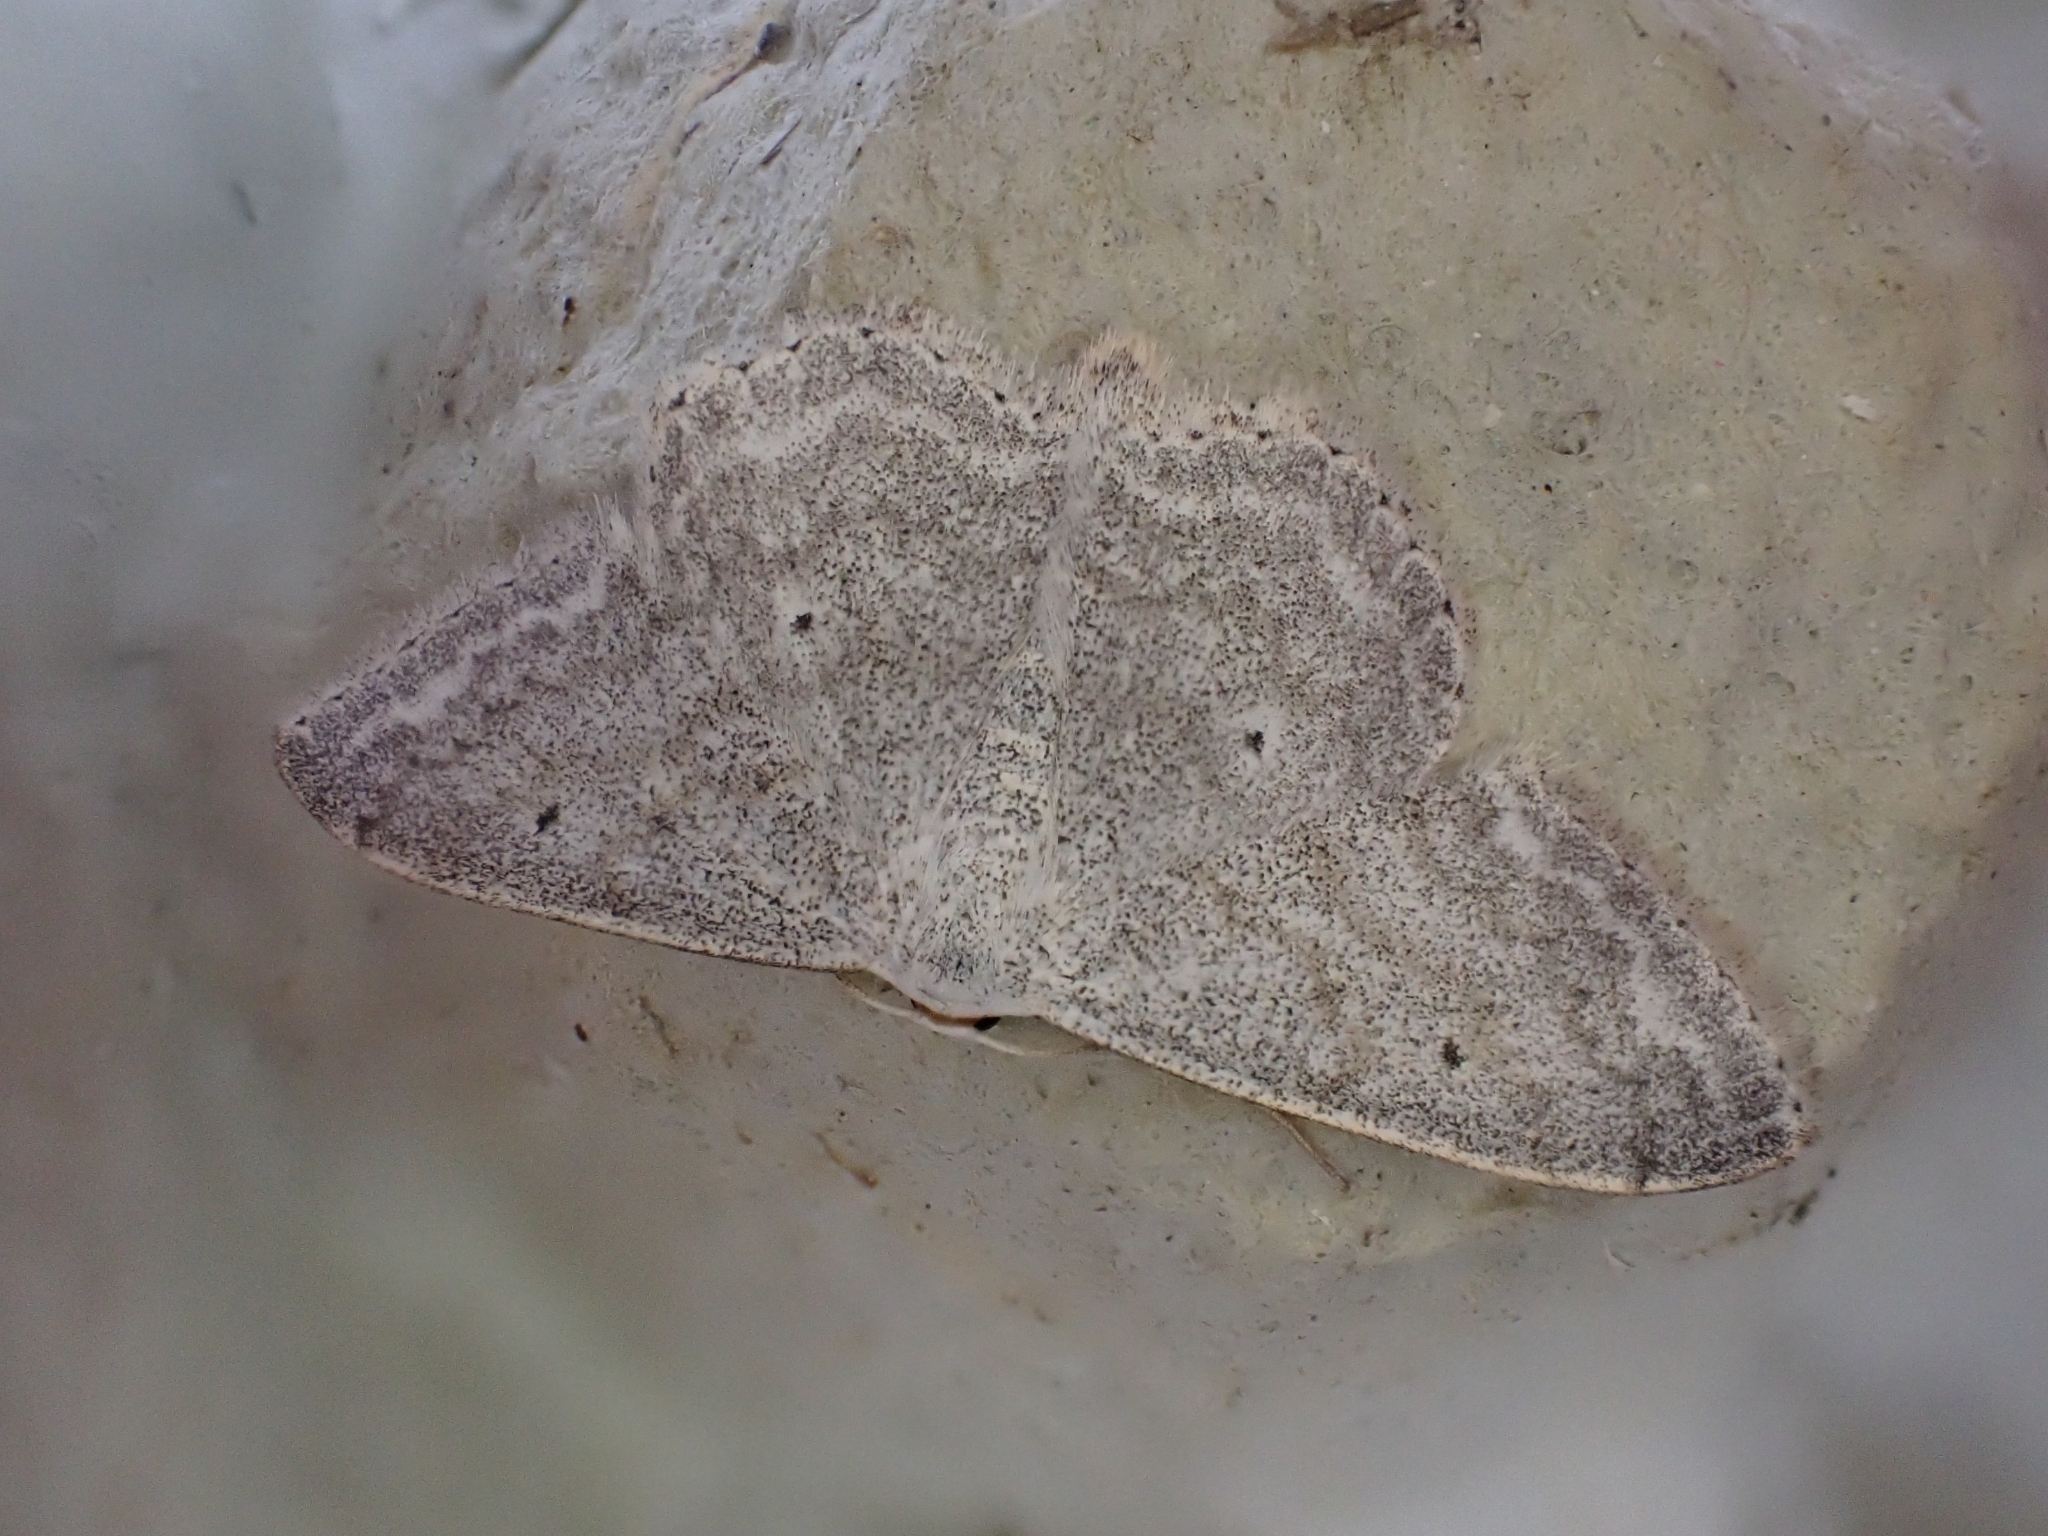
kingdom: Animalia
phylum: Arthropoda
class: Insecta
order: Lepidoptera
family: Geometridae
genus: Scopula
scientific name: Scopula incanata
